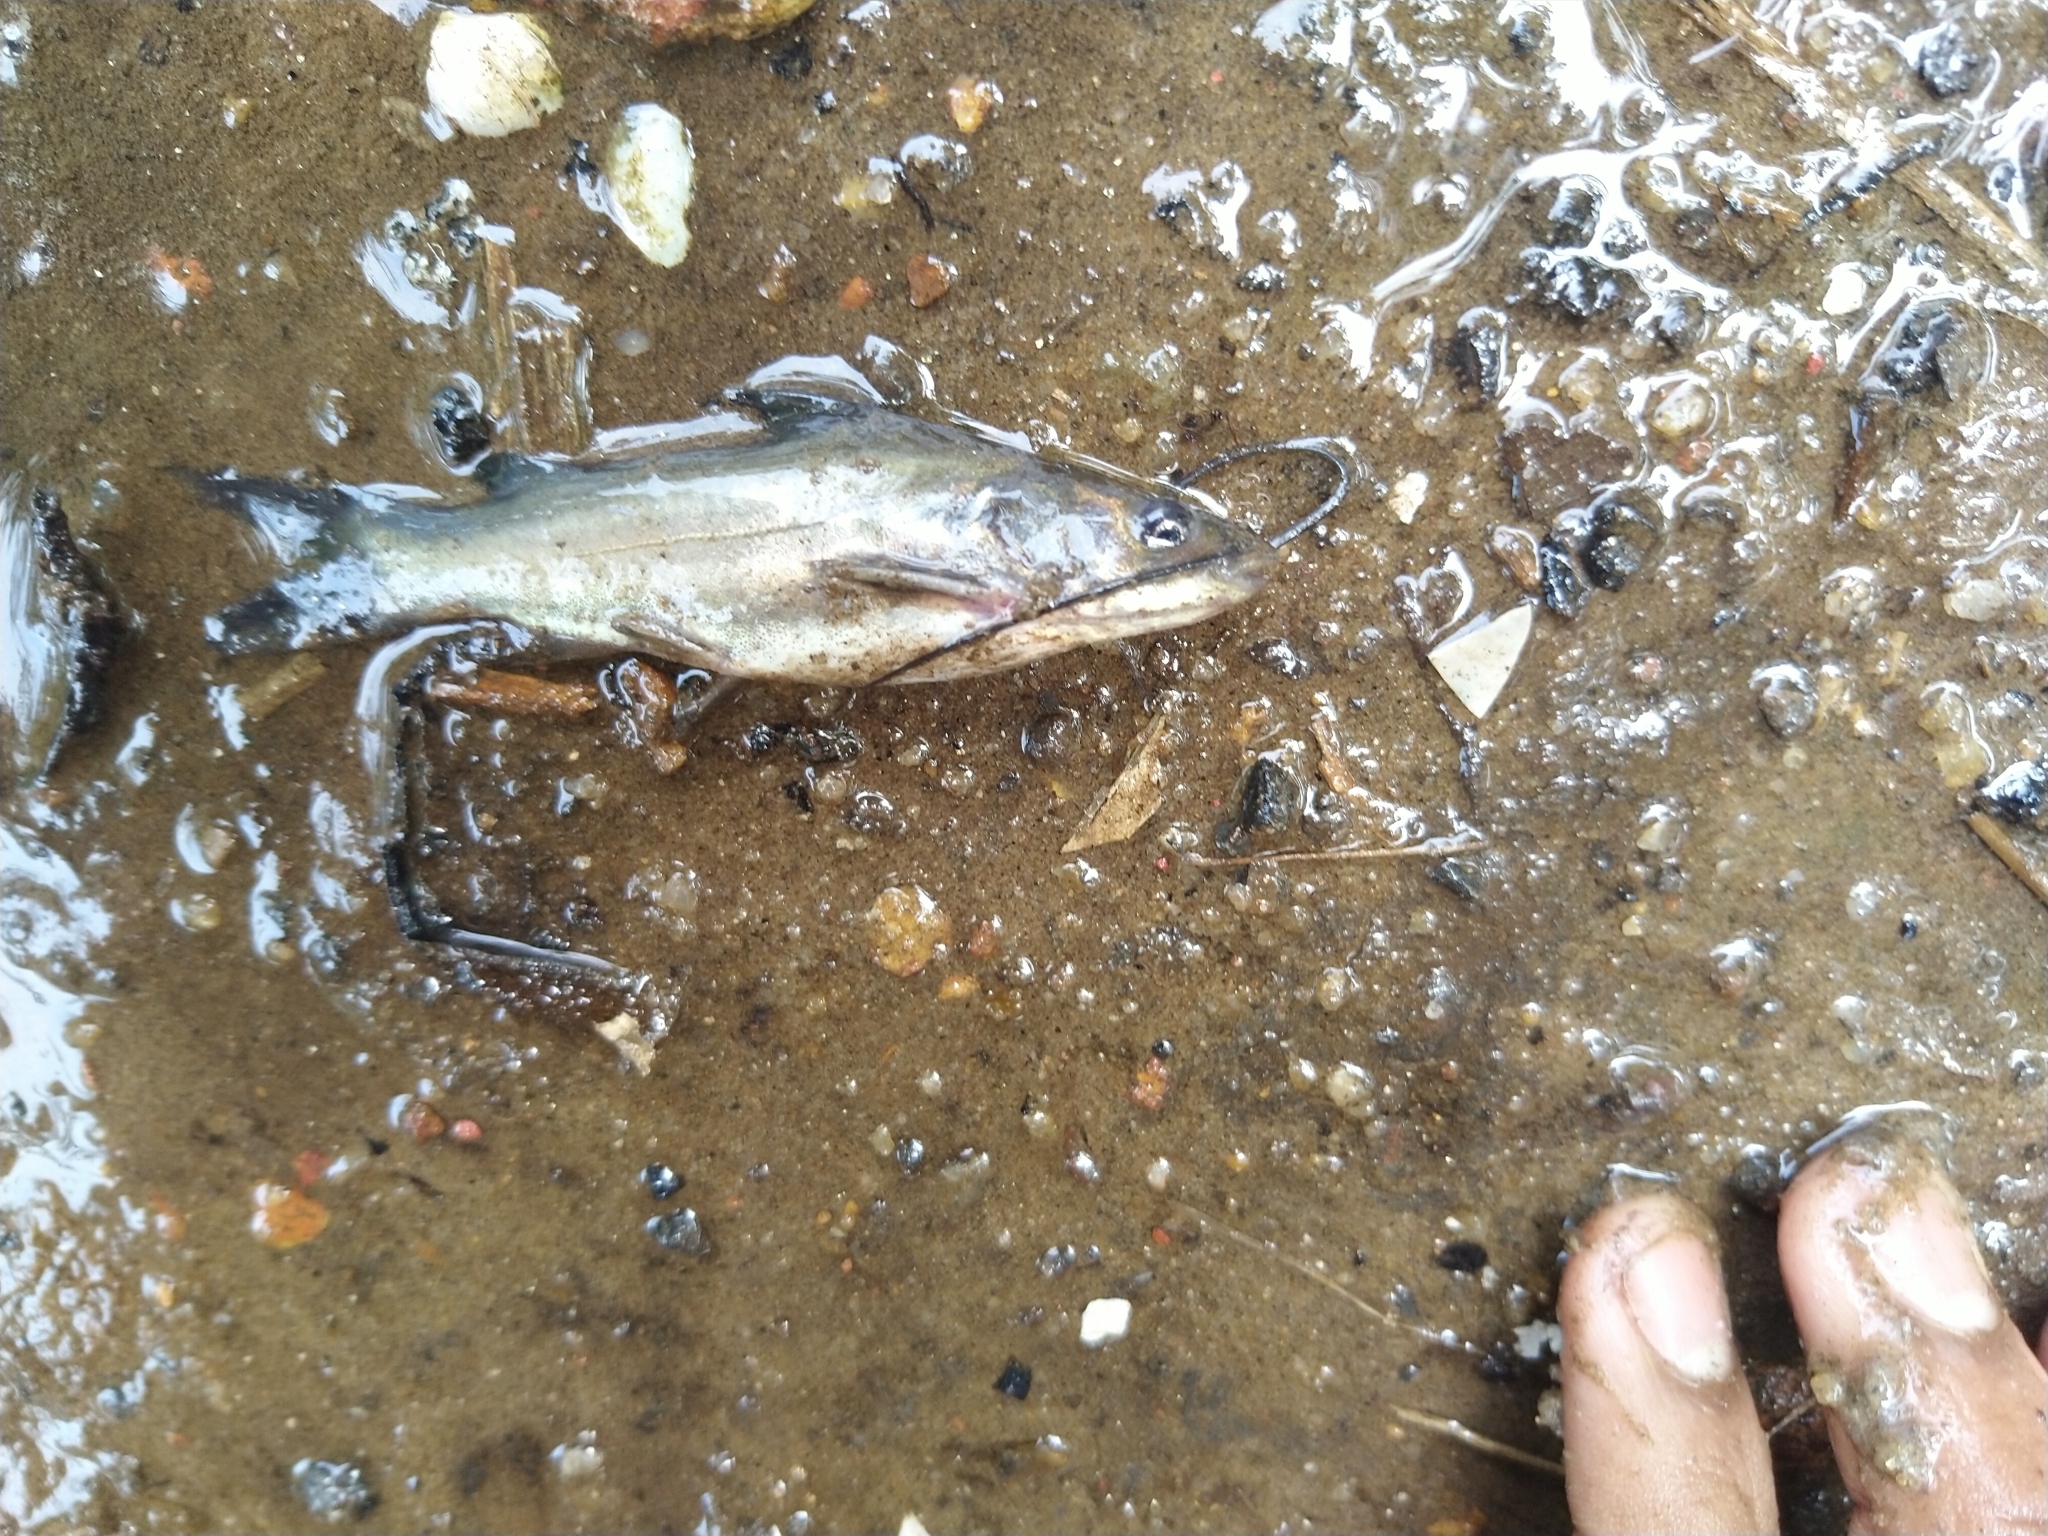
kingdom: Animalia
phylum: Chordata
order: Siluriformes
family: Bagridae
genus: Mystus
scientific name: Mystus gulio
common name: Long whiskers catfish
